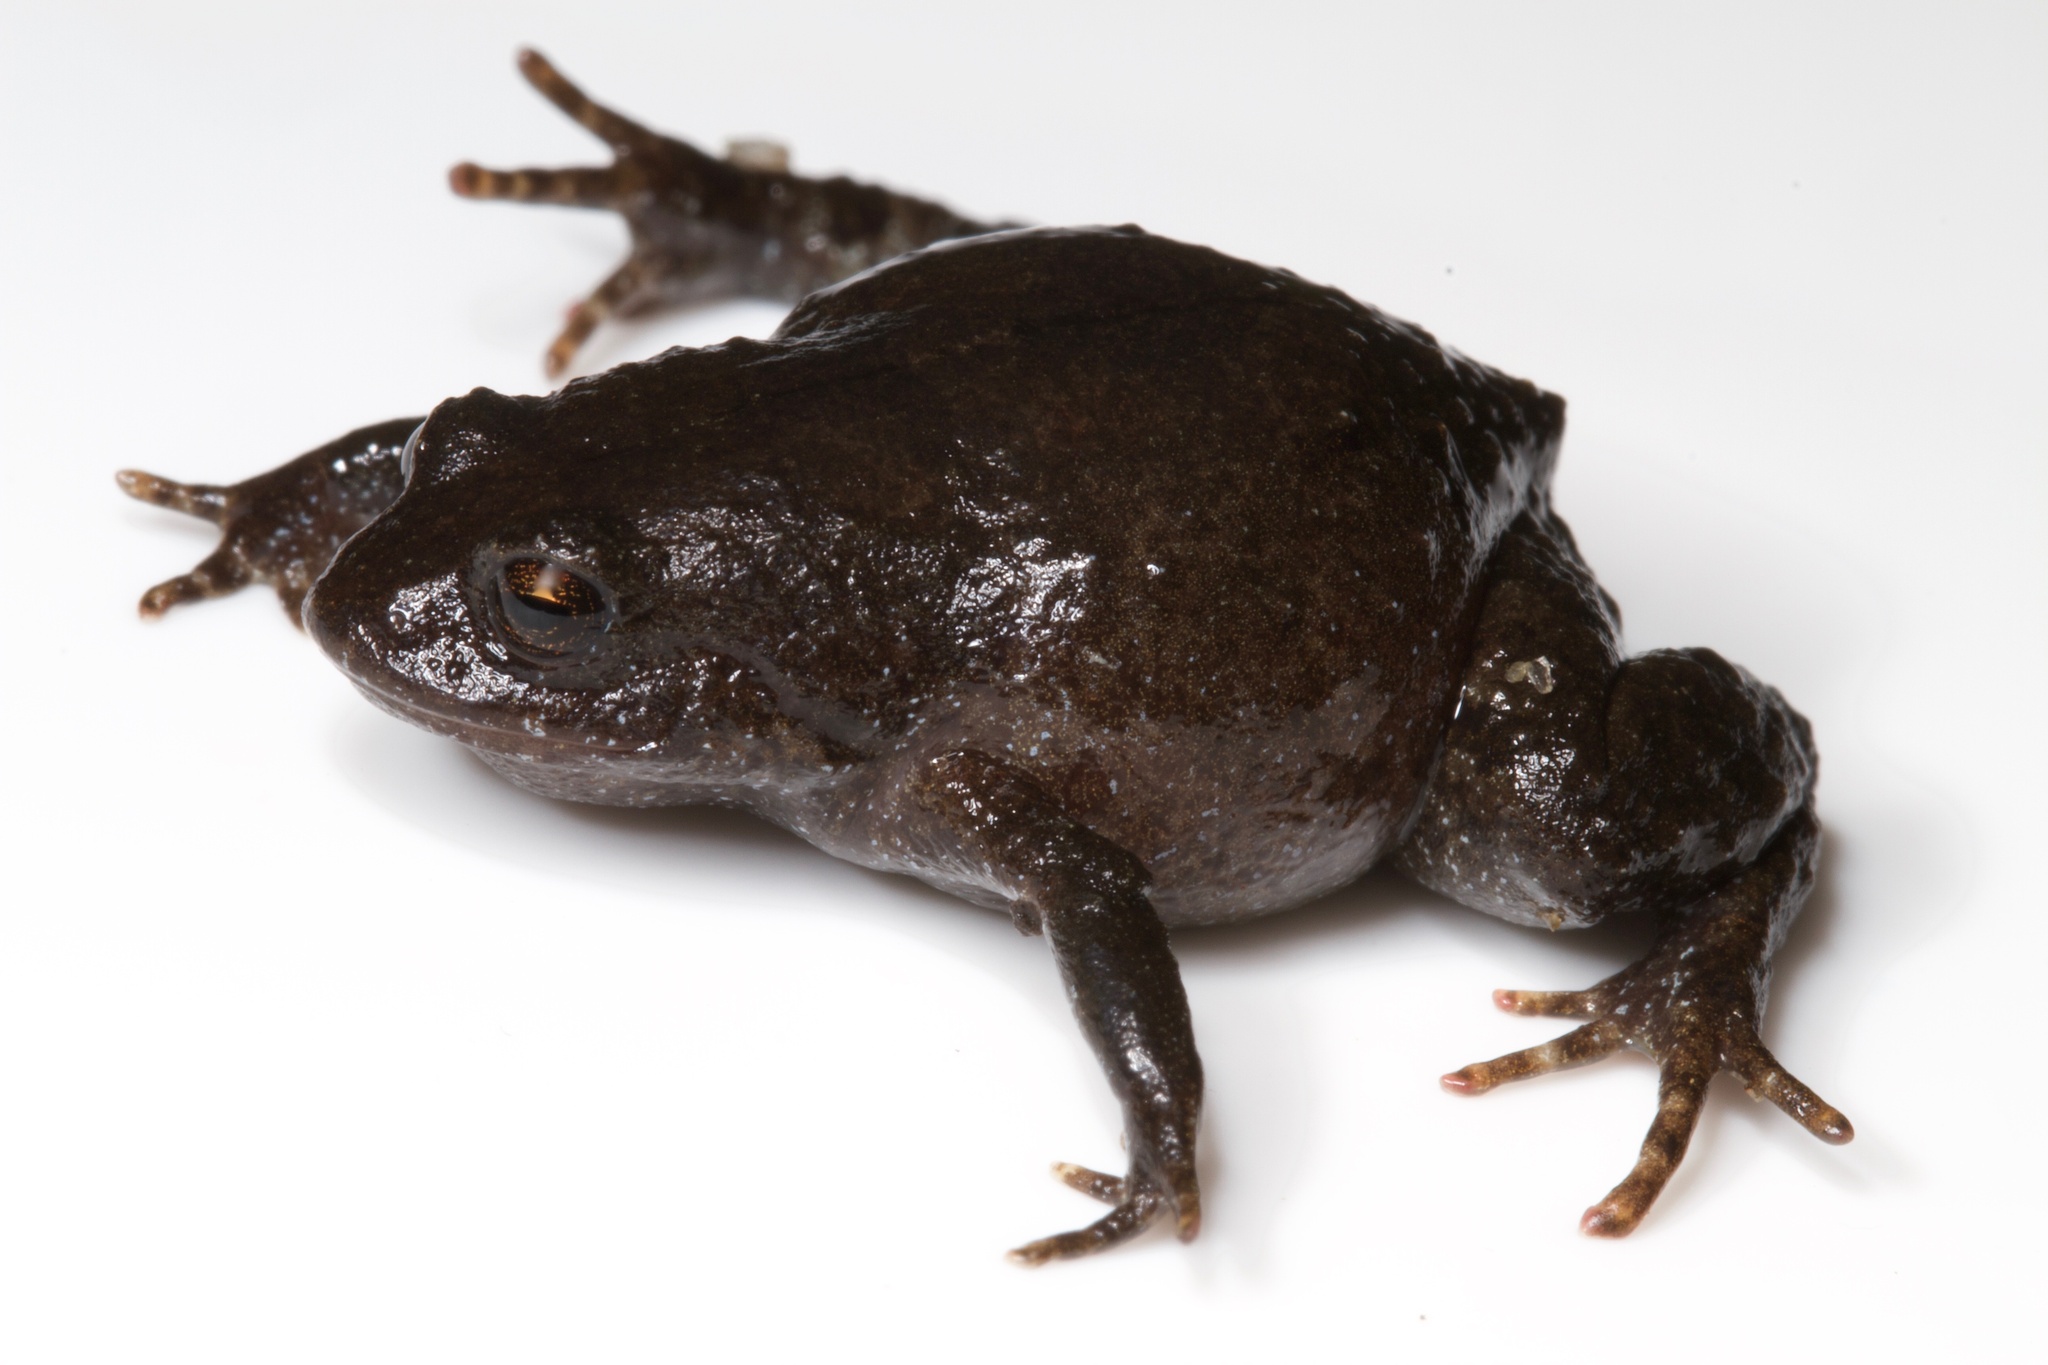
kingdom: Animalia
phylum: Chordata
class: Amphibia
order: Anura
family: Craugastoridae
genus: Geobatrachus
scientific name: Geobatrachus walkeri
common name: Walker's sierra frog
